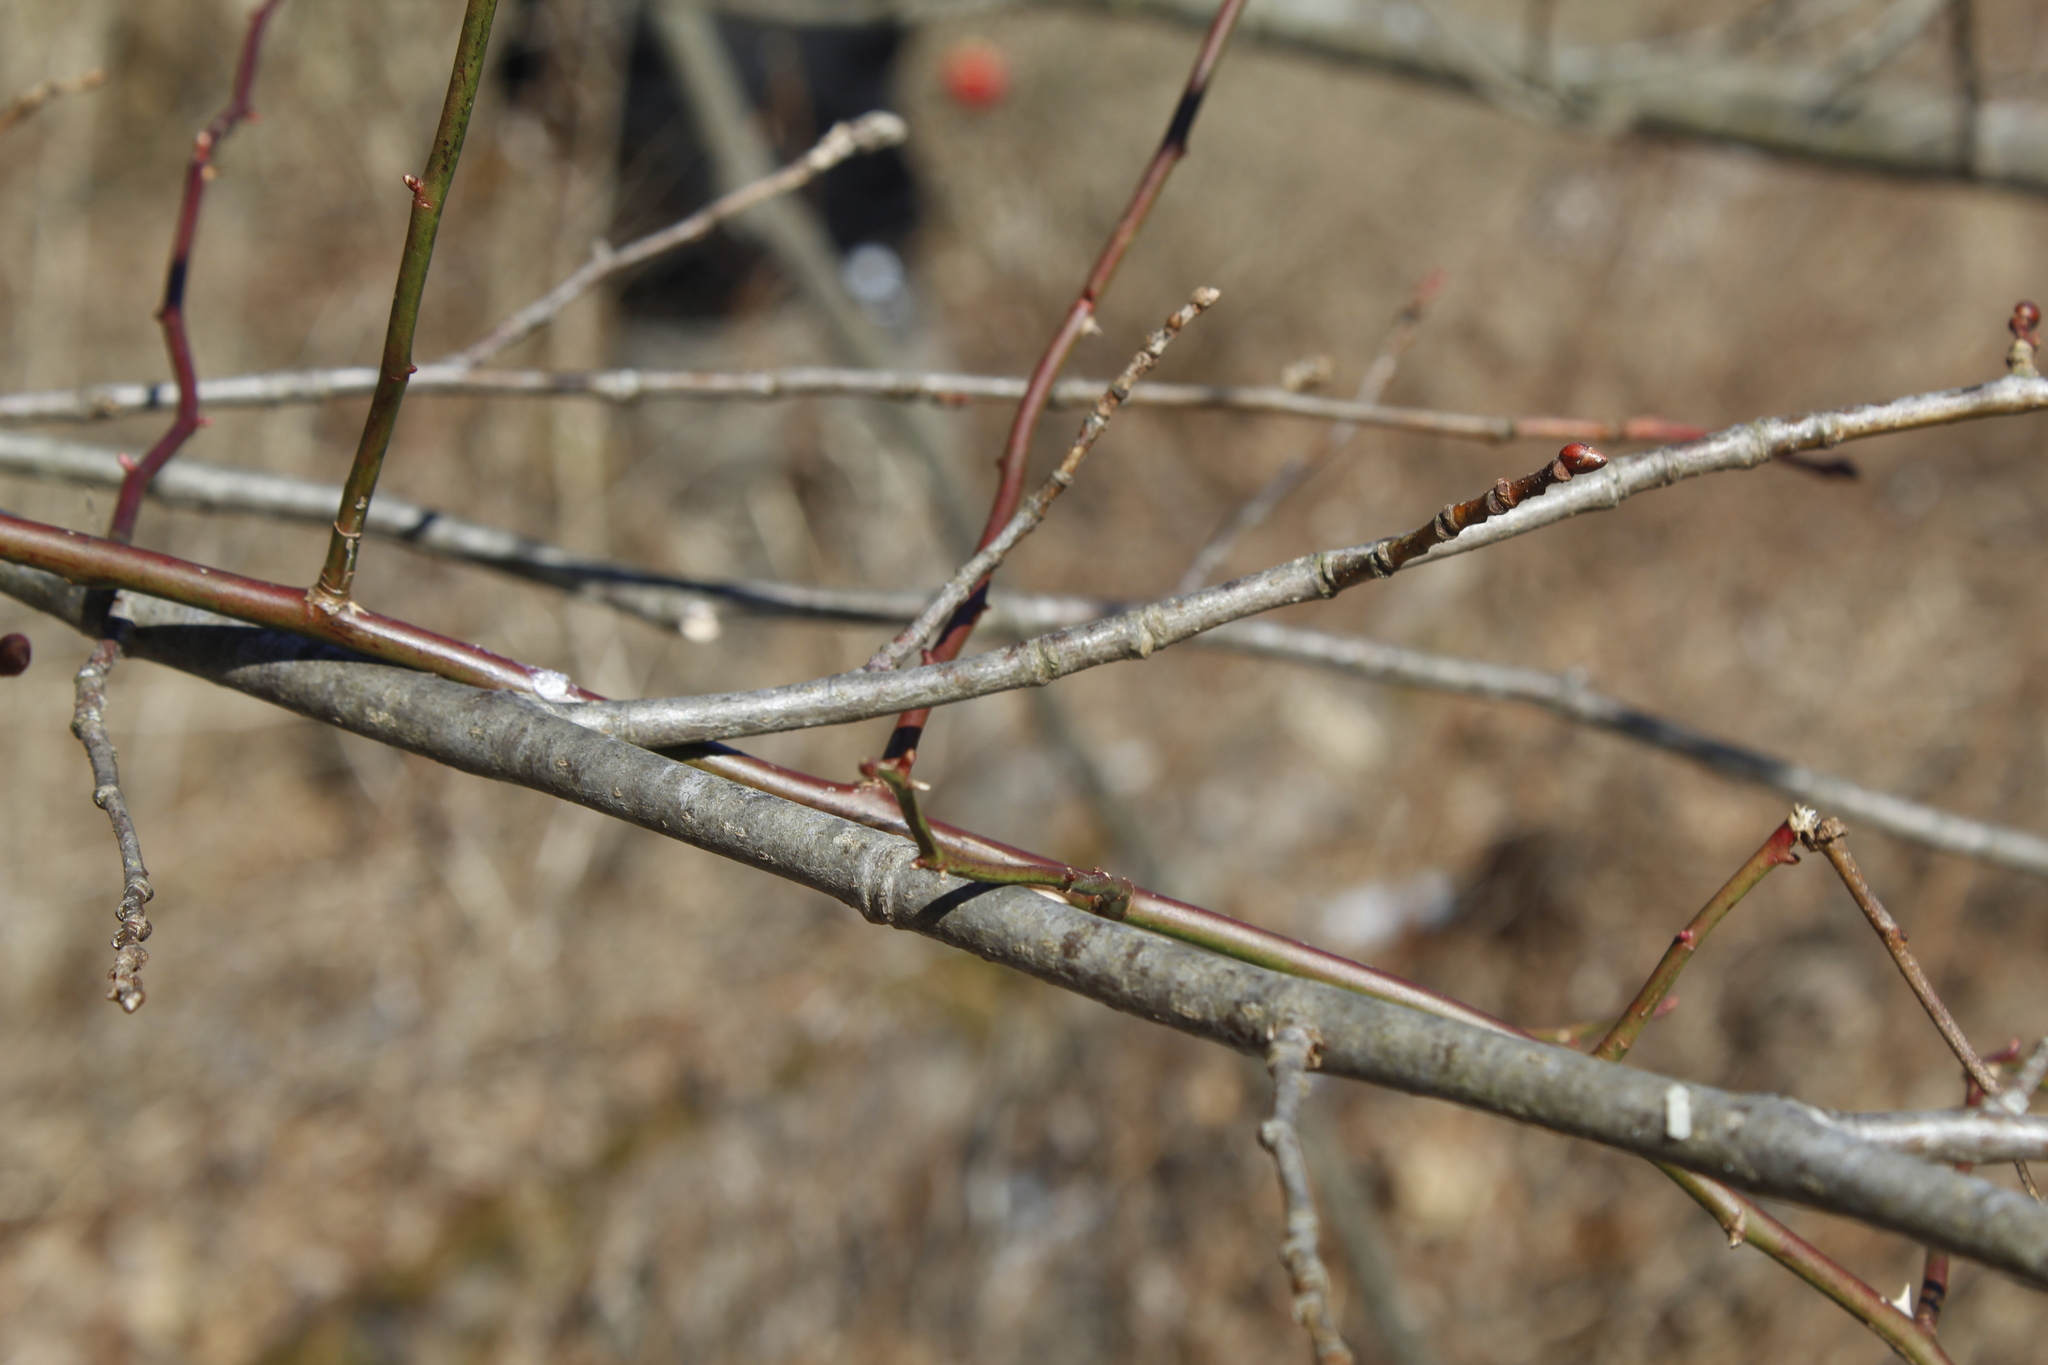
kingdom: Plantae
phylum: Tracheophyta
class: Magnoliopsida
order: Rosales
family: Rosaceae
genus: Rosa
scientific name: Rosa multiflora
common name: Multiflora rose
